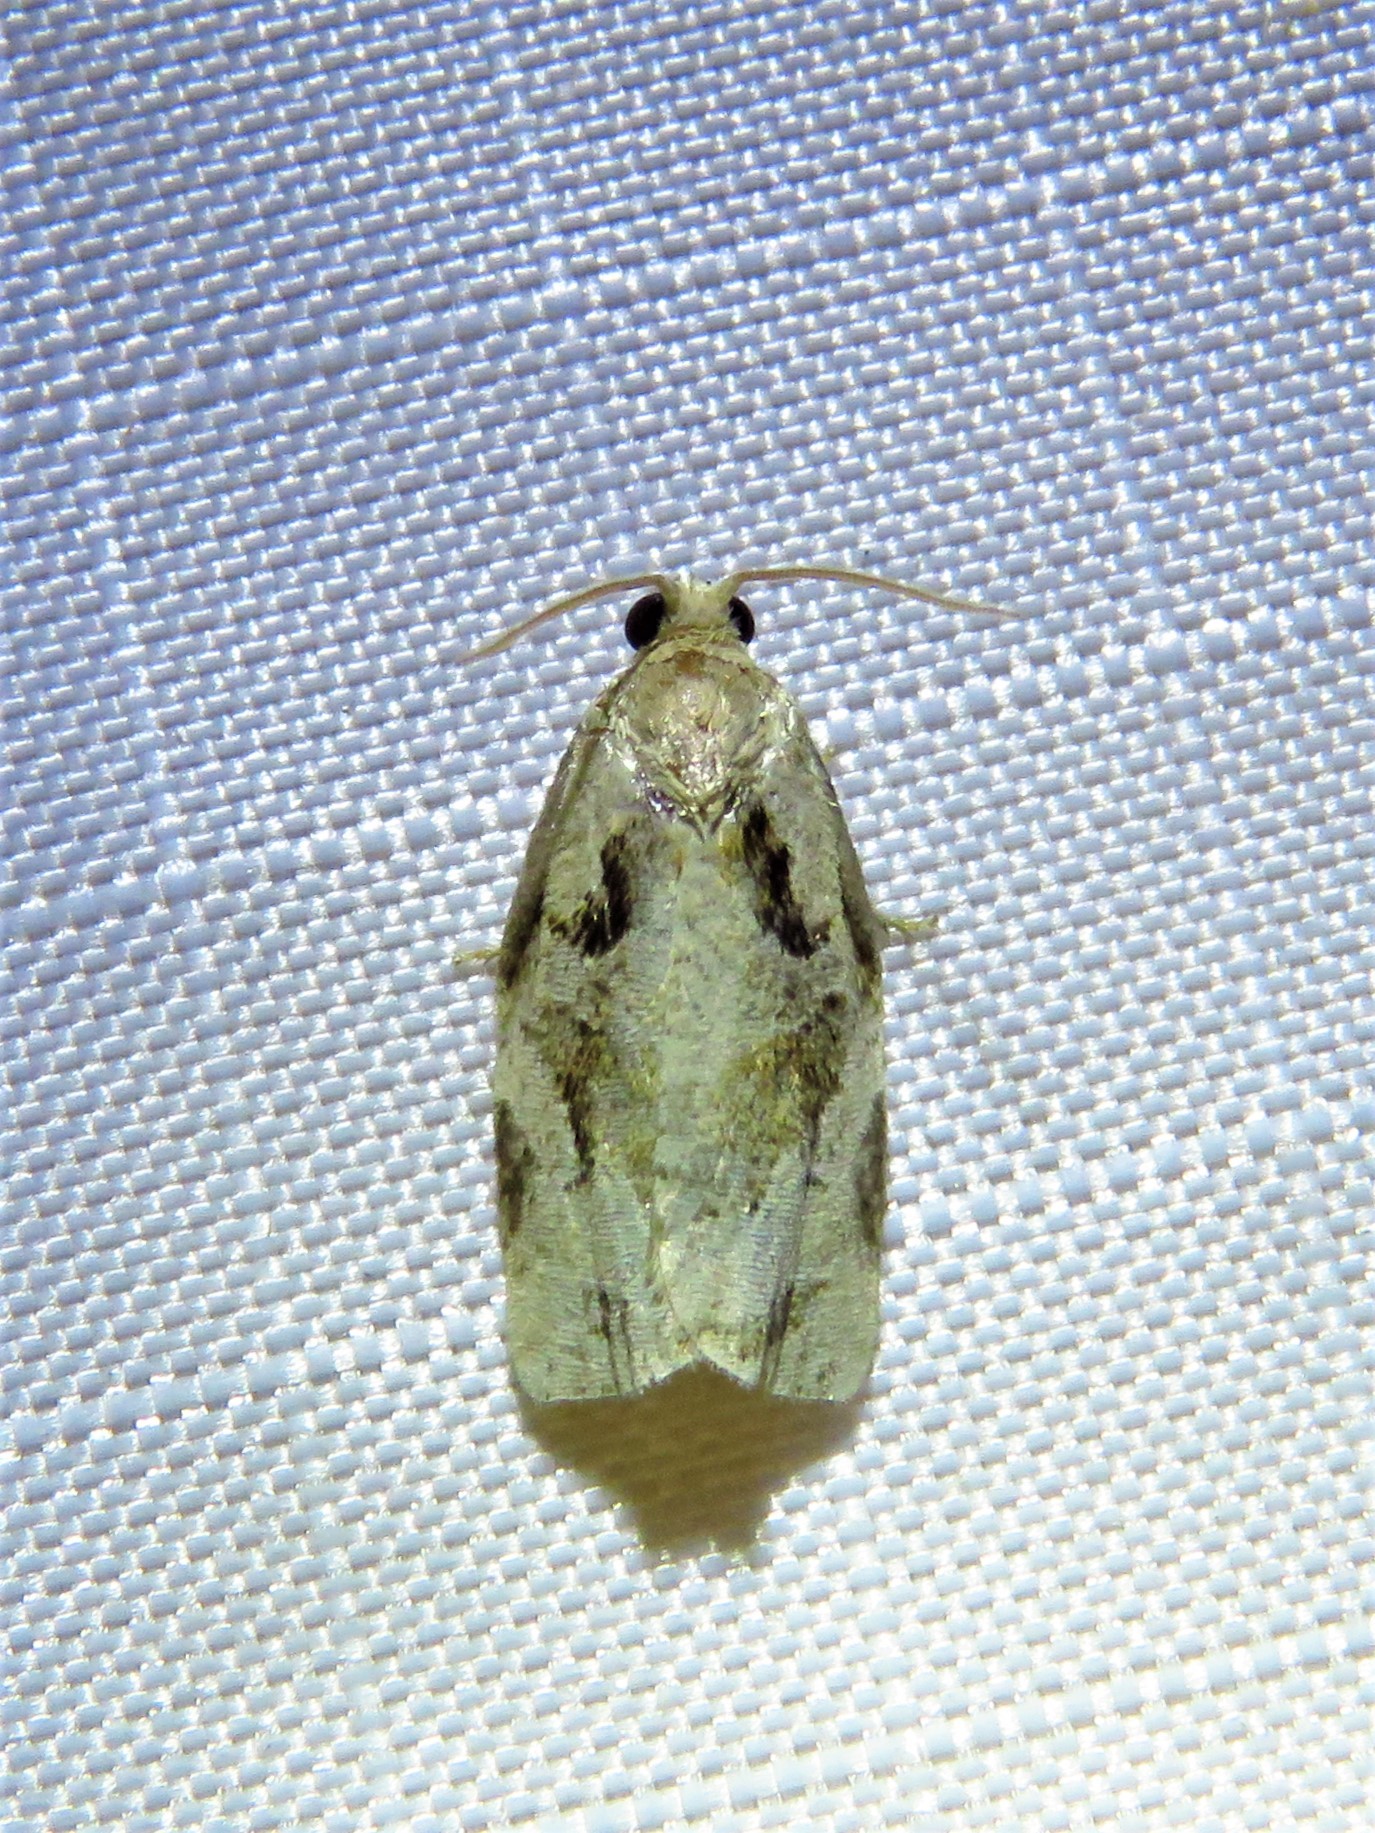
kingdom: Animalia
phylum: Arthropoda
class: Insecta
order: Lepidoptera
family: Tortricidae
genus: Archips
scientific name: Archips grisea
